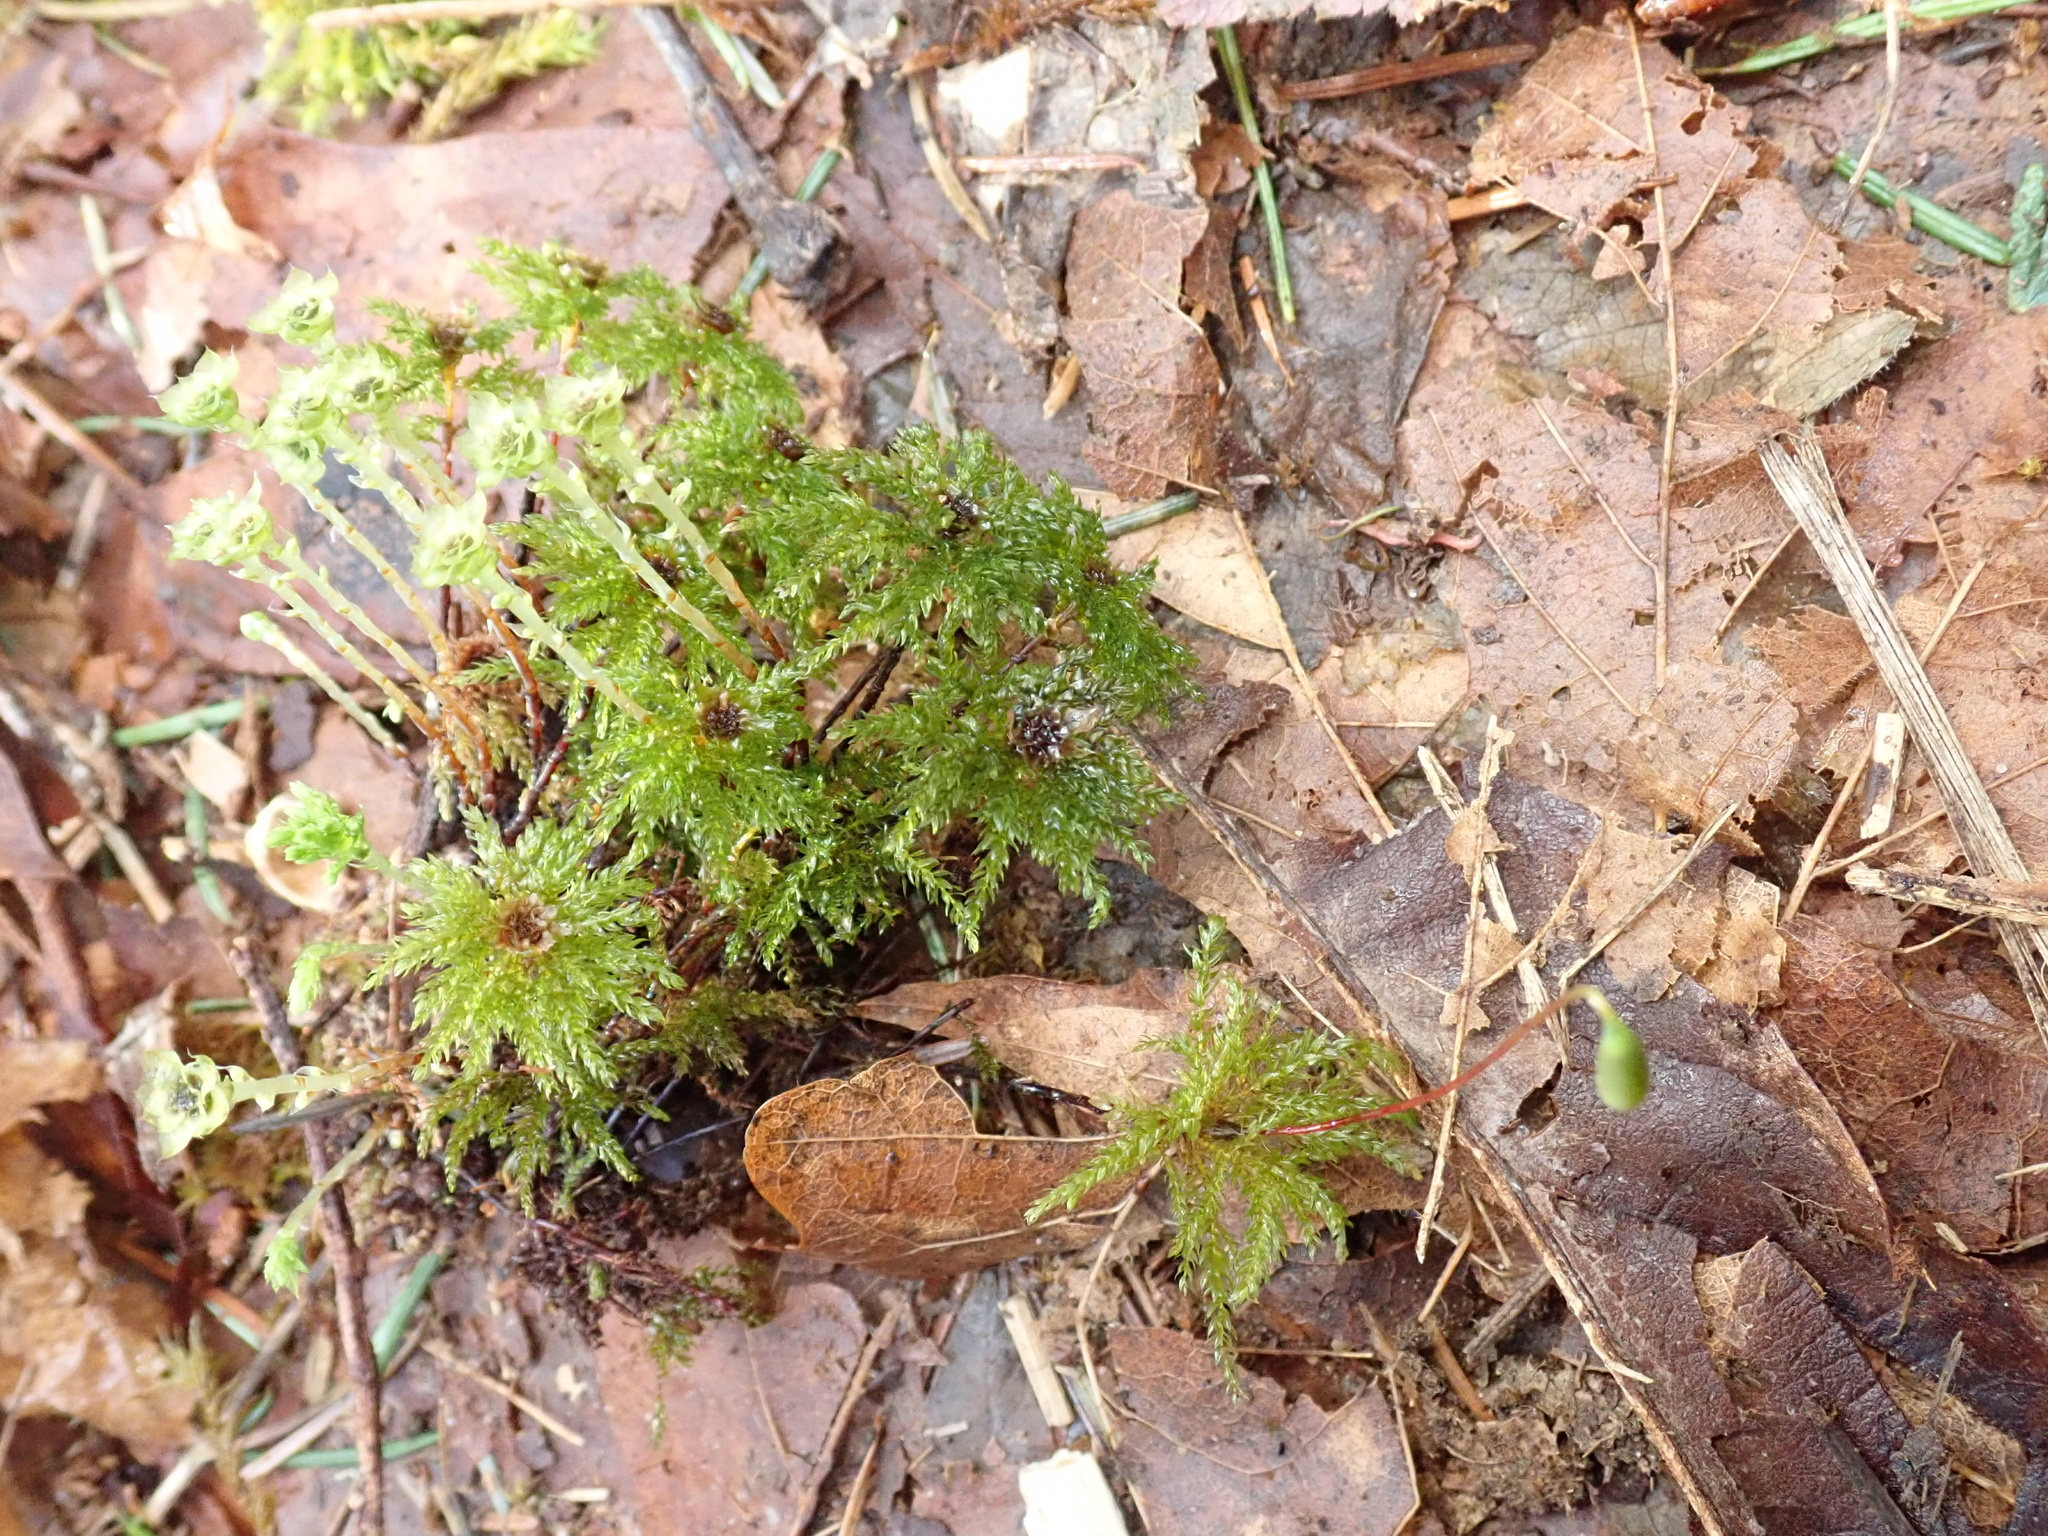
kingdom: Plantae
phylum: Bryophyta
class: Bryopsida
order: Bryales
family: Mniaceae
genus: Leucolepis
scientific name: Leucolepis acanthoneura
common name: Leucolepis umbrella moss
